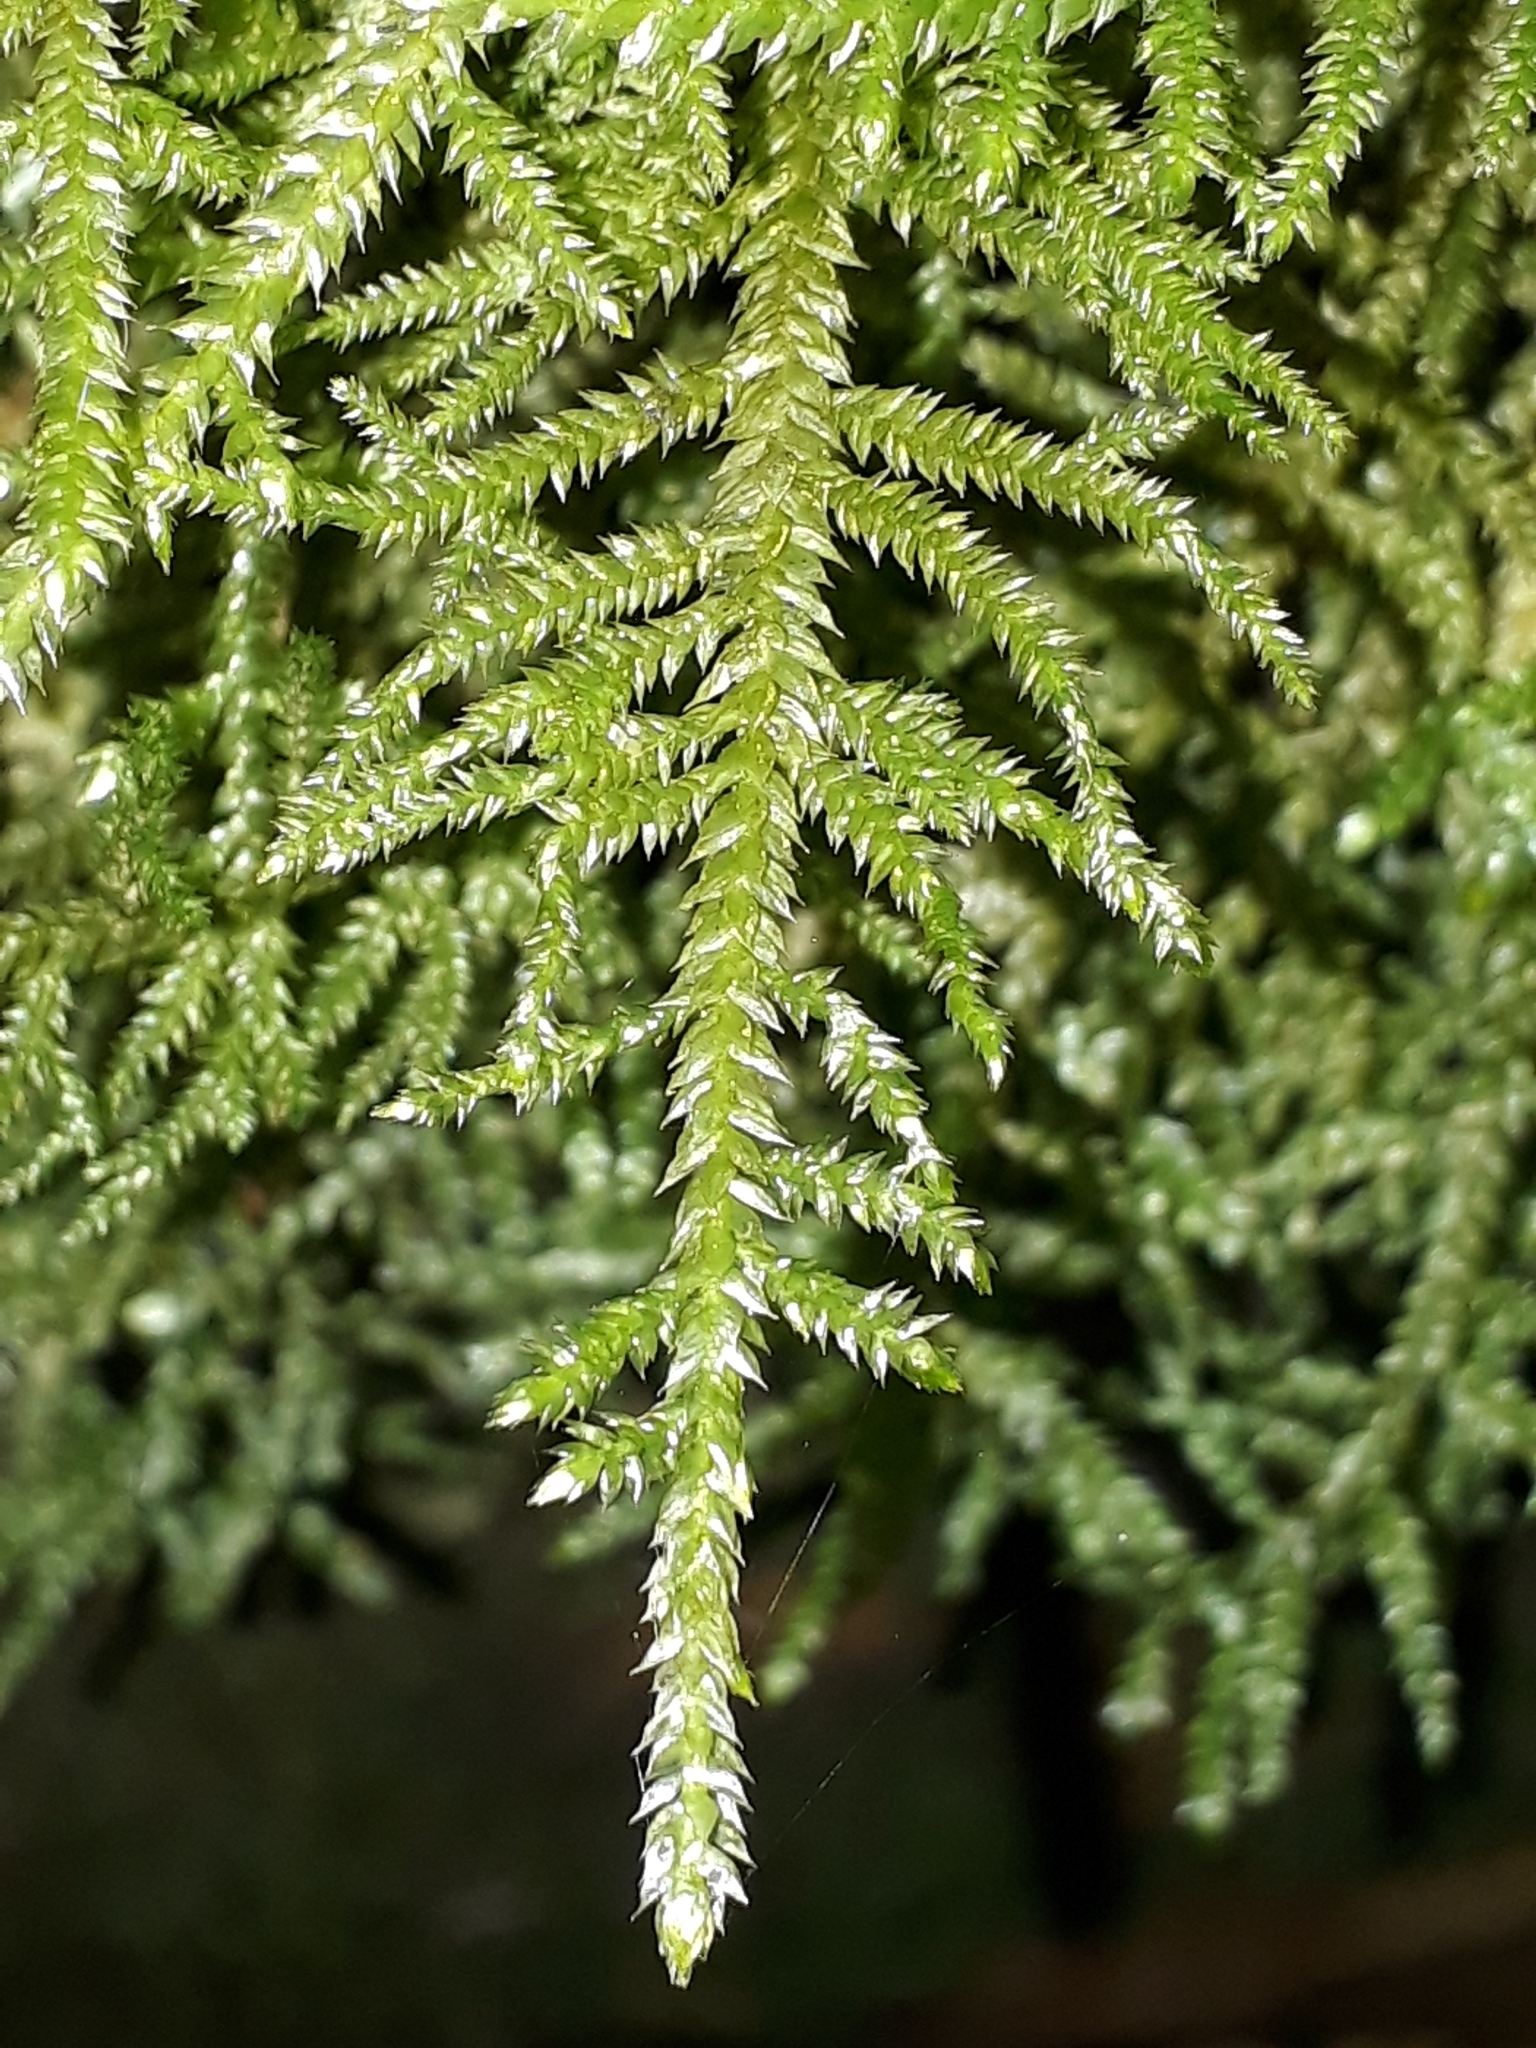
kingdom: Plantae
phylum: Bryophyta
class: Bryopsida
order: Hypnales
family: Lembophyllaceae
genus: Camptochaete
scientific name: Camptochaete angustata
